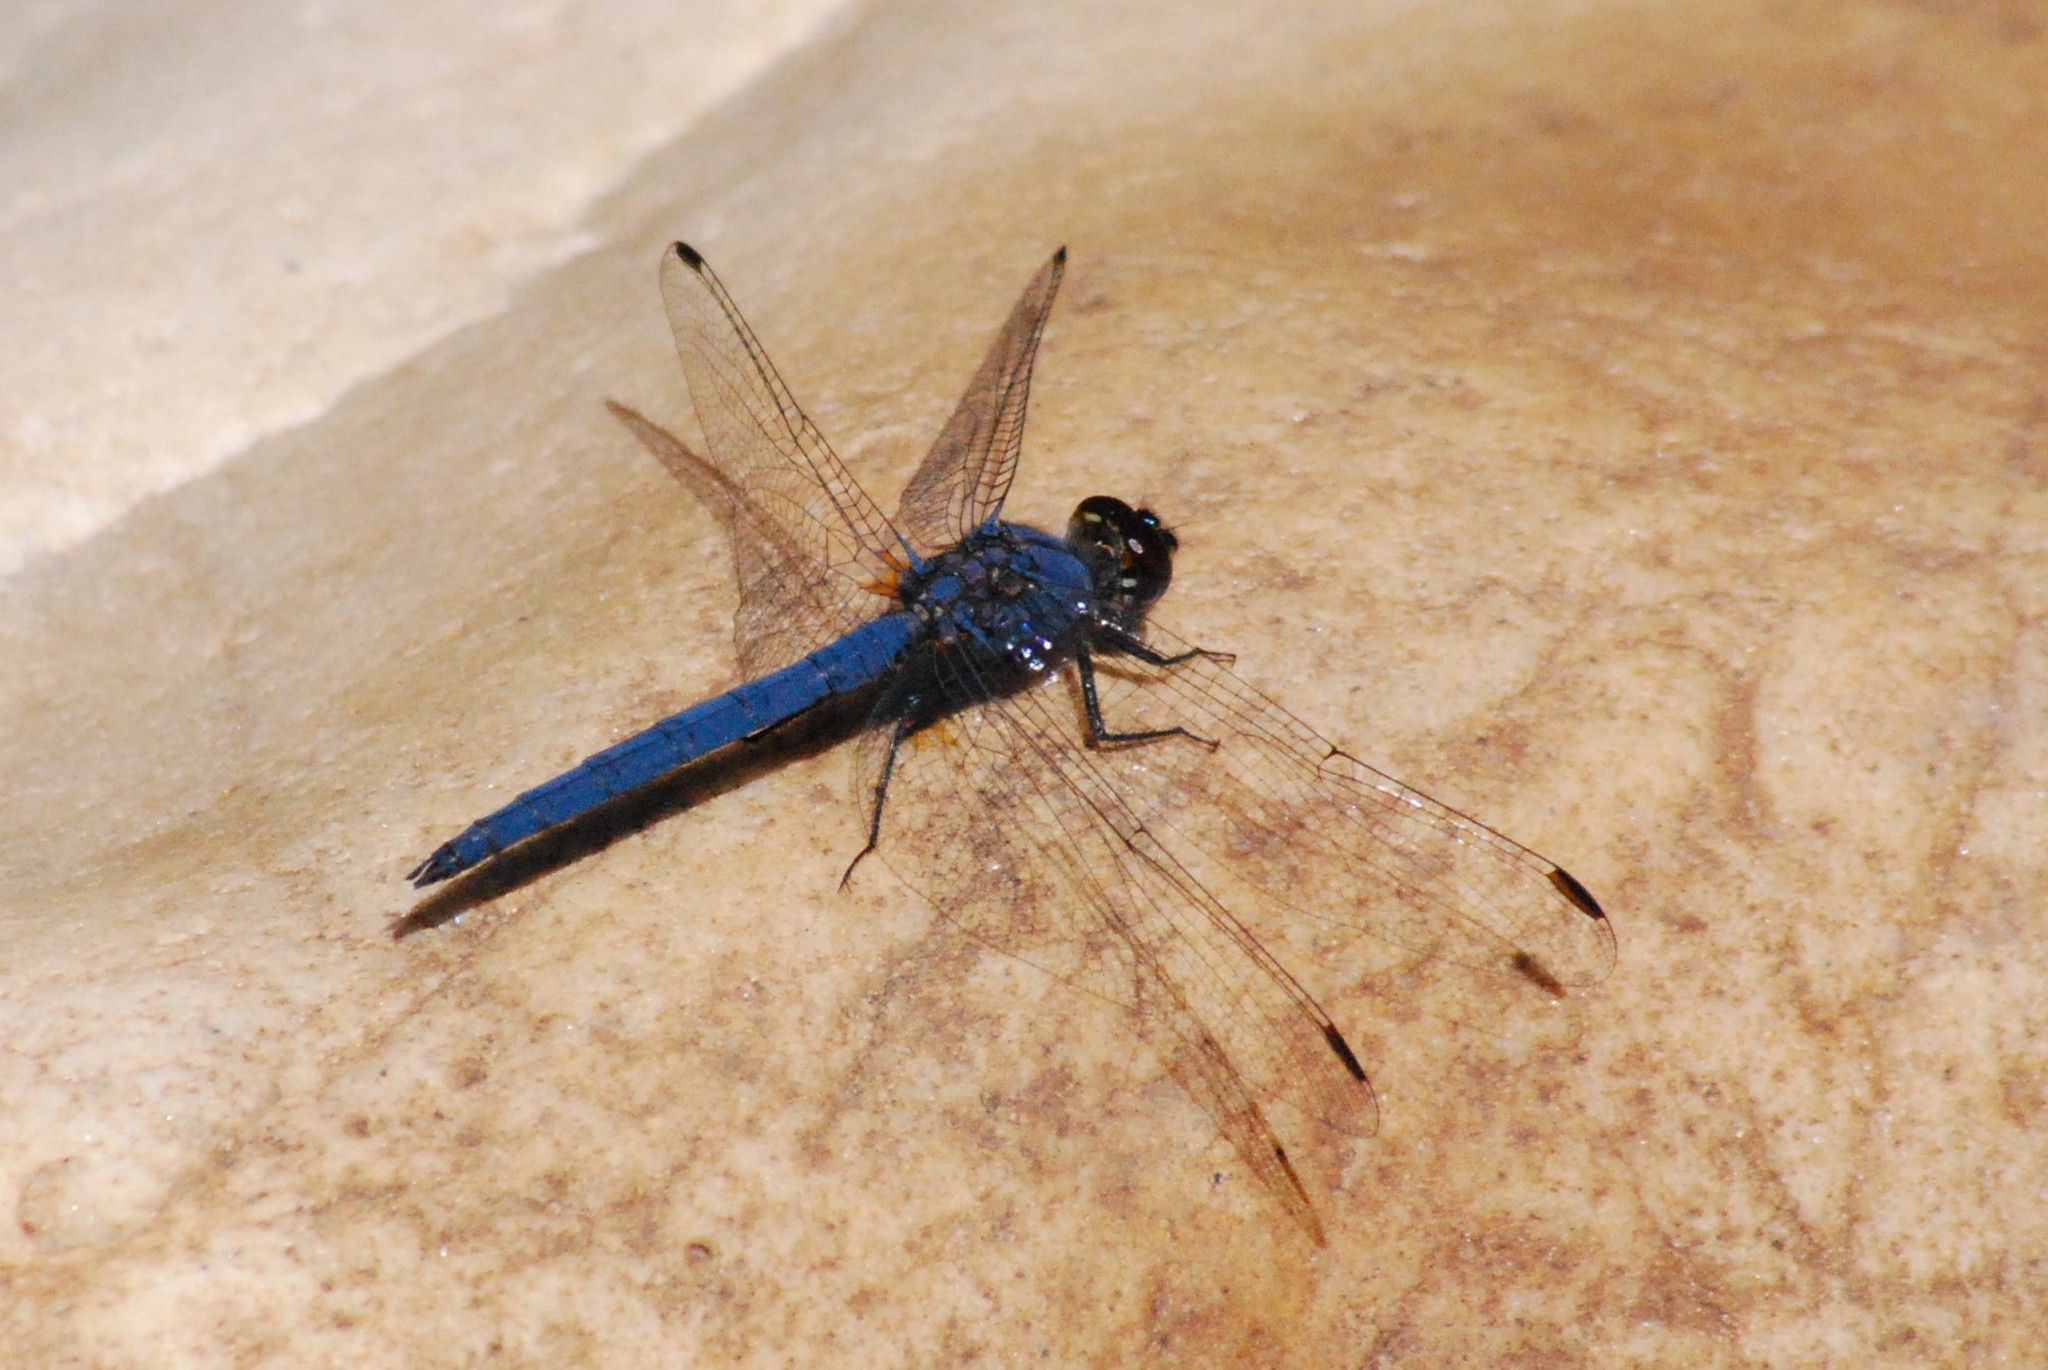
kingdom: Animalia
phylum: Arthropoda
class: Insecta
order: Odonata
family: Libellulidae
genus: Trithemis
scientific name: Trithemis furva
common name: Dark dropwing
